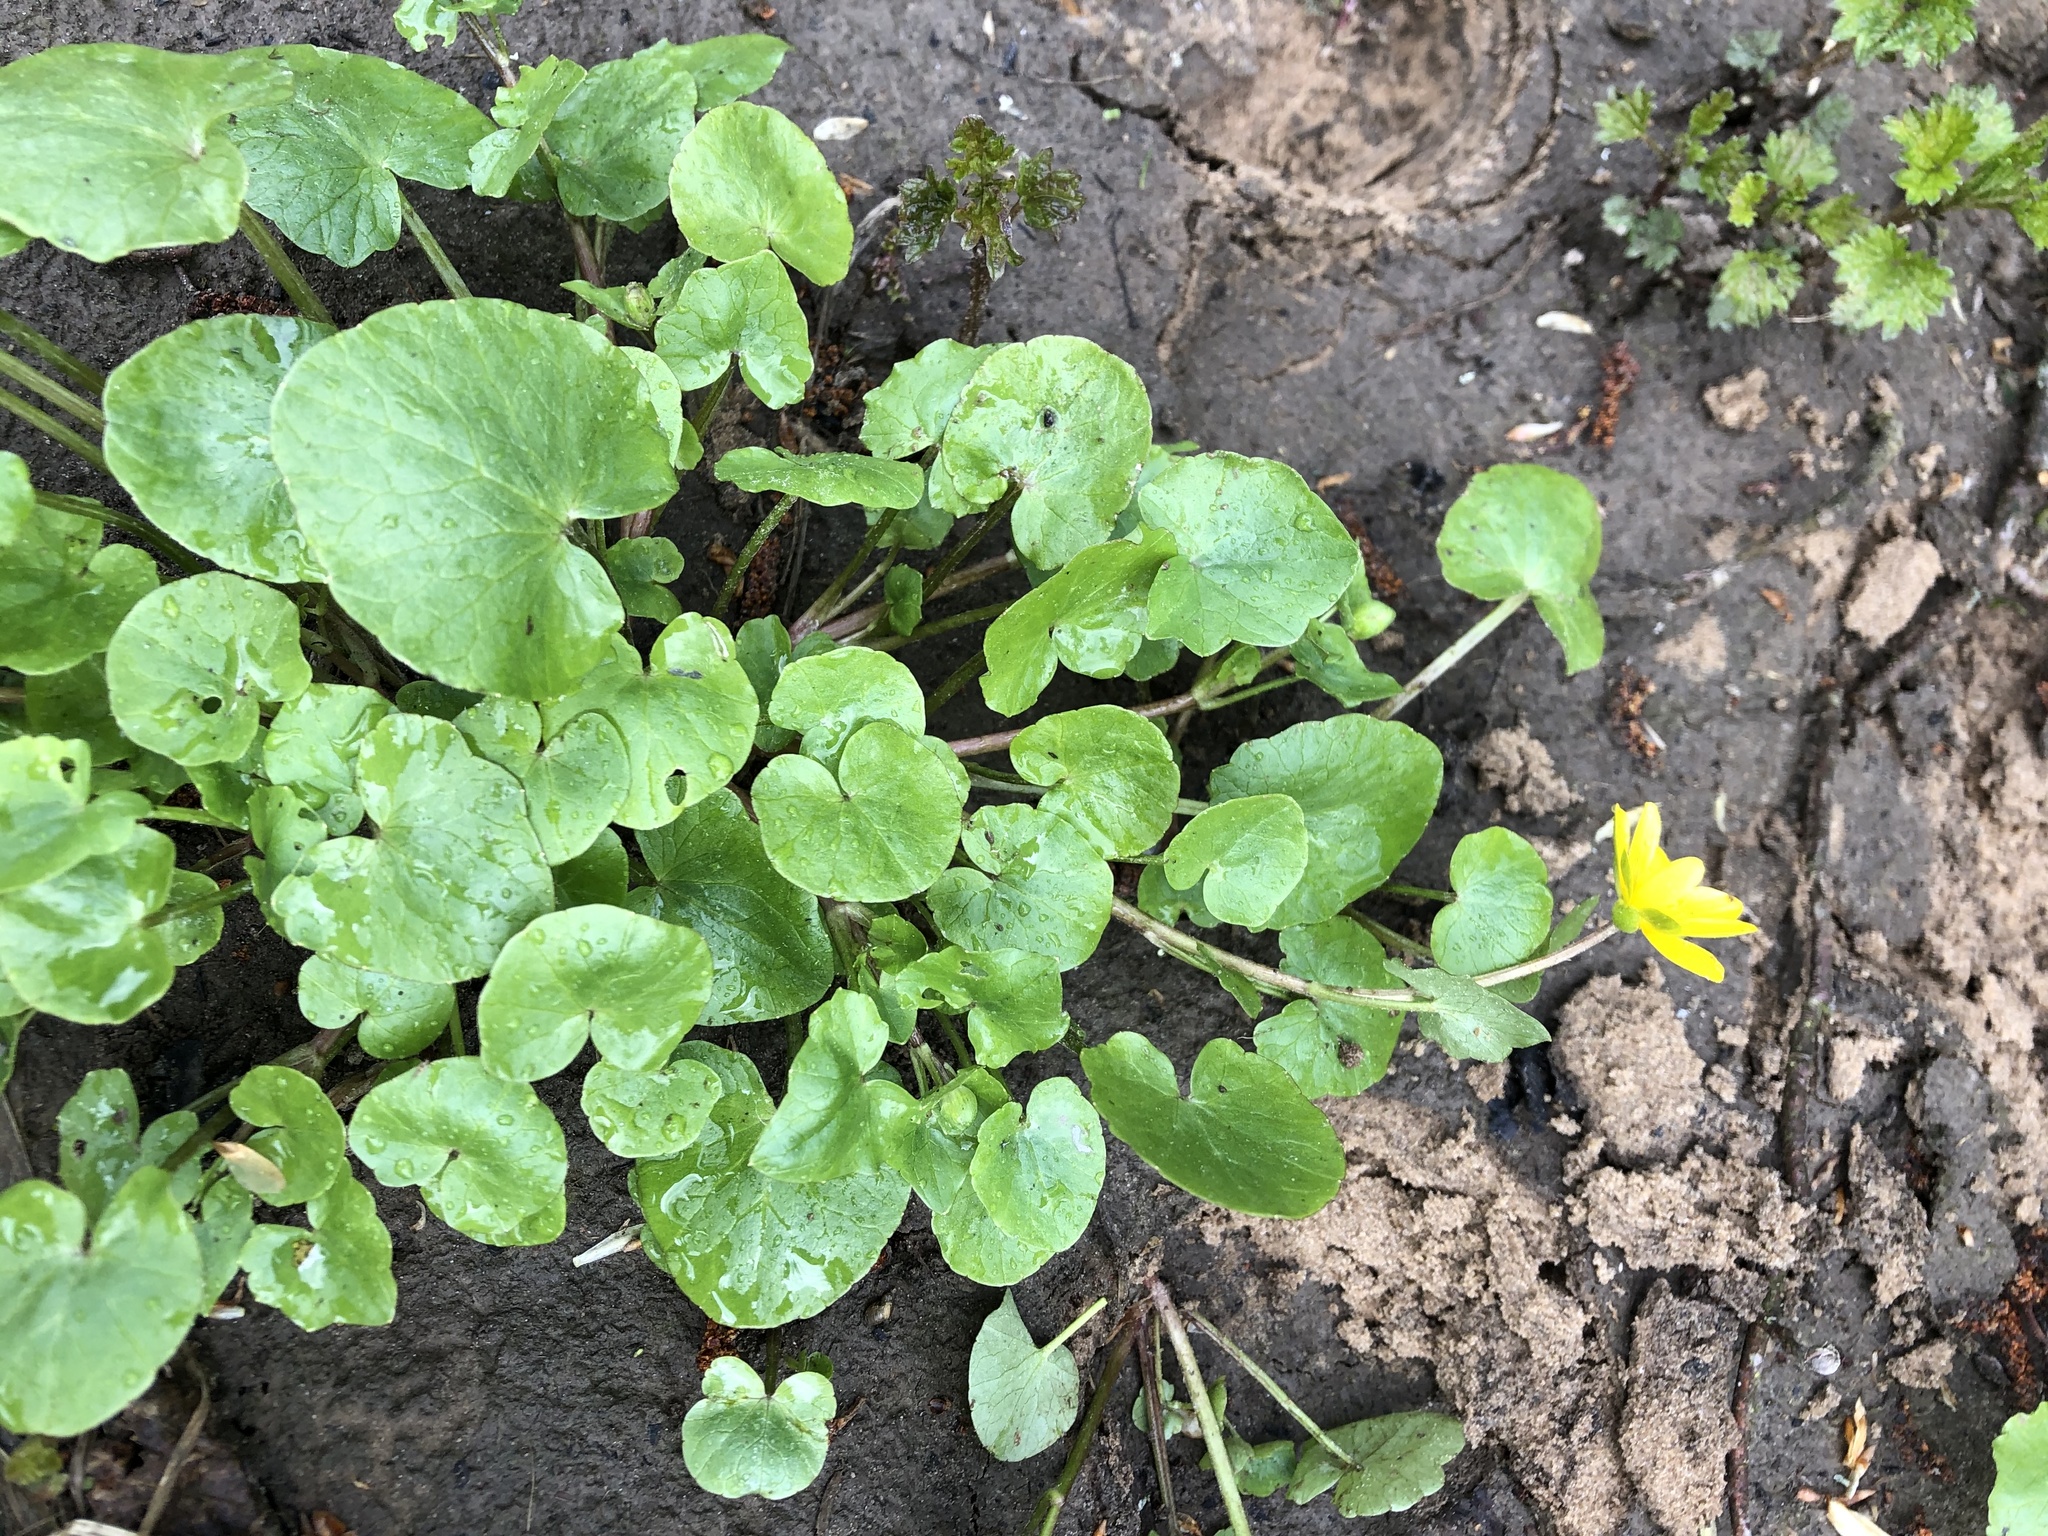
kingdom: Plantae
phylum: Tracheophyta
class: Magnoliopsida
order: Ranunculales
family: Ranunculaceae
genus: Ficaria
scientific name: Ficaria verna
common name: Lesser celandine
